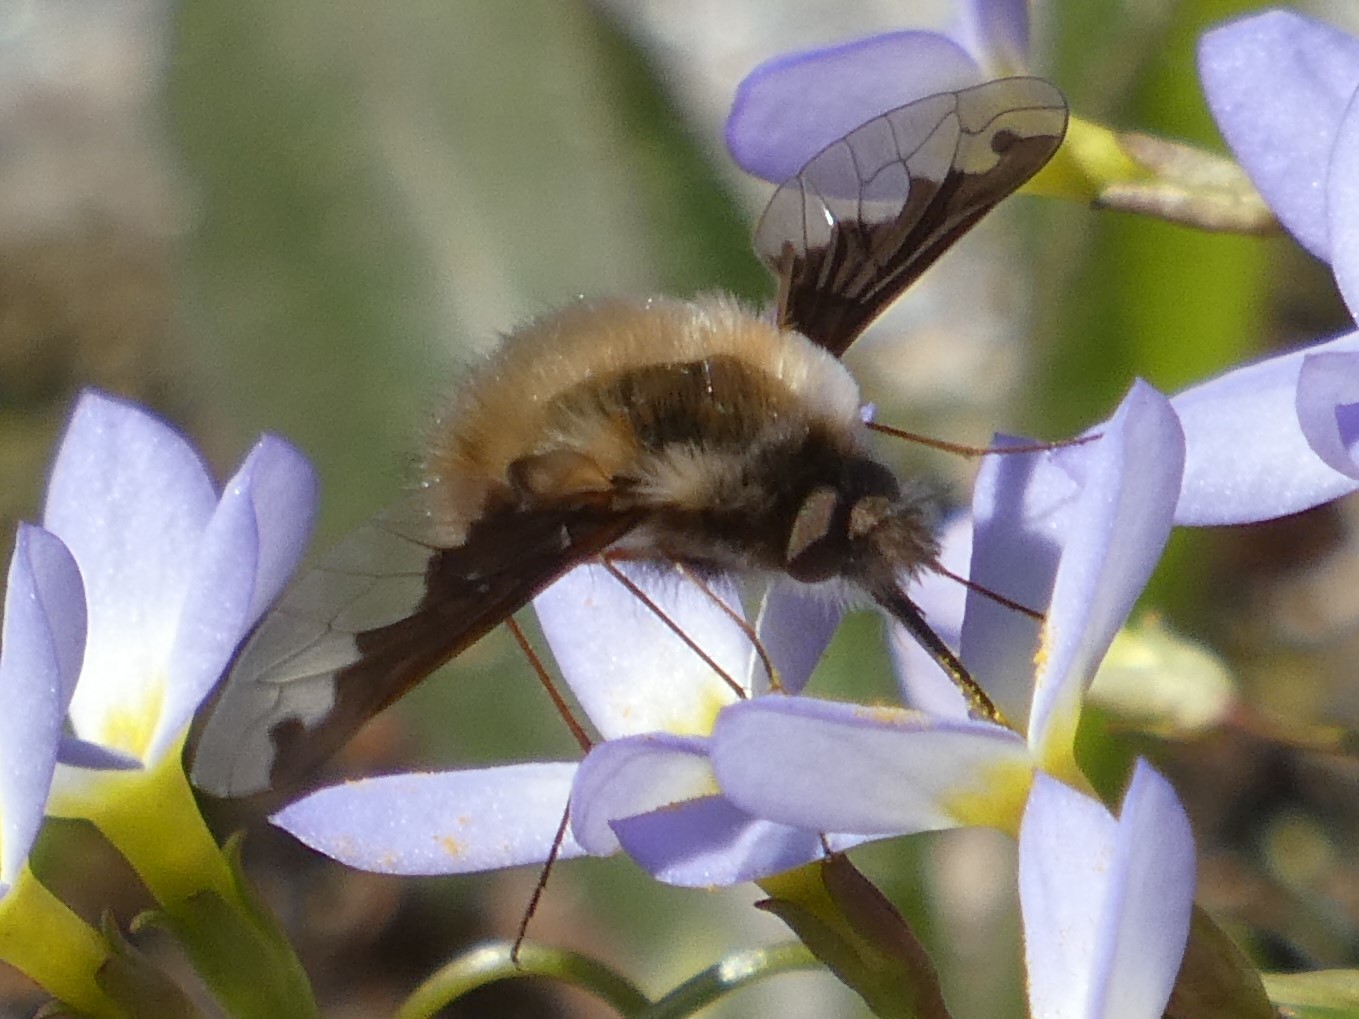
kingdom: Animalia
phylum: Arthropoda
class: Insecta
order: Diptera
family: Bombyliidae
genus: Bombylius
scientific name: Bombylius major
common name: Bee fly
